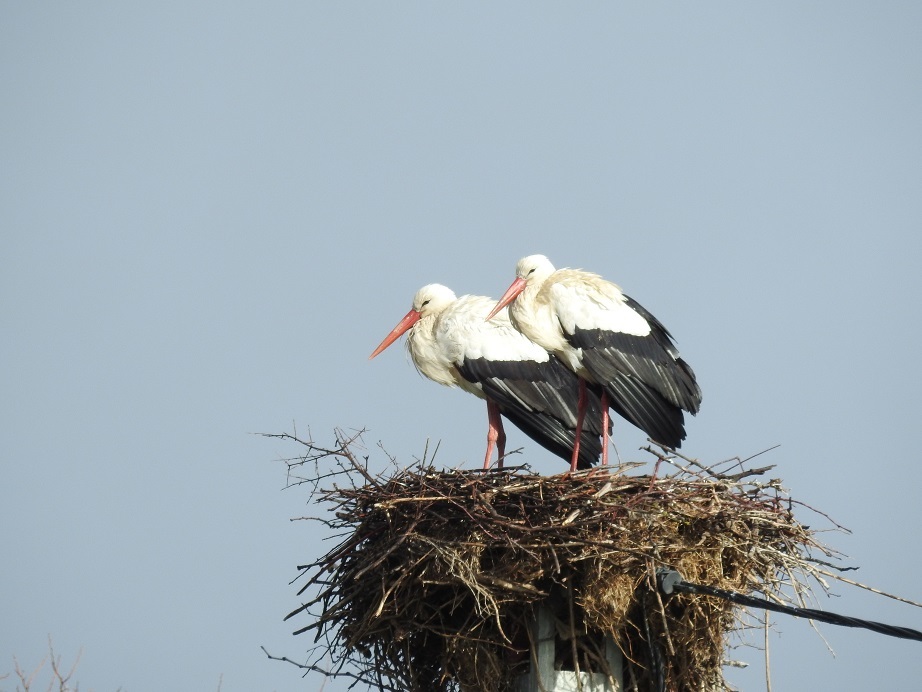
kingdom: Animalia
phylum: Chordata
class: Aves
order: Ciconiiformes
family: Ciconiidae
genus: Ciconia
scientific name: Ciconia ciconia
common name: White stork
